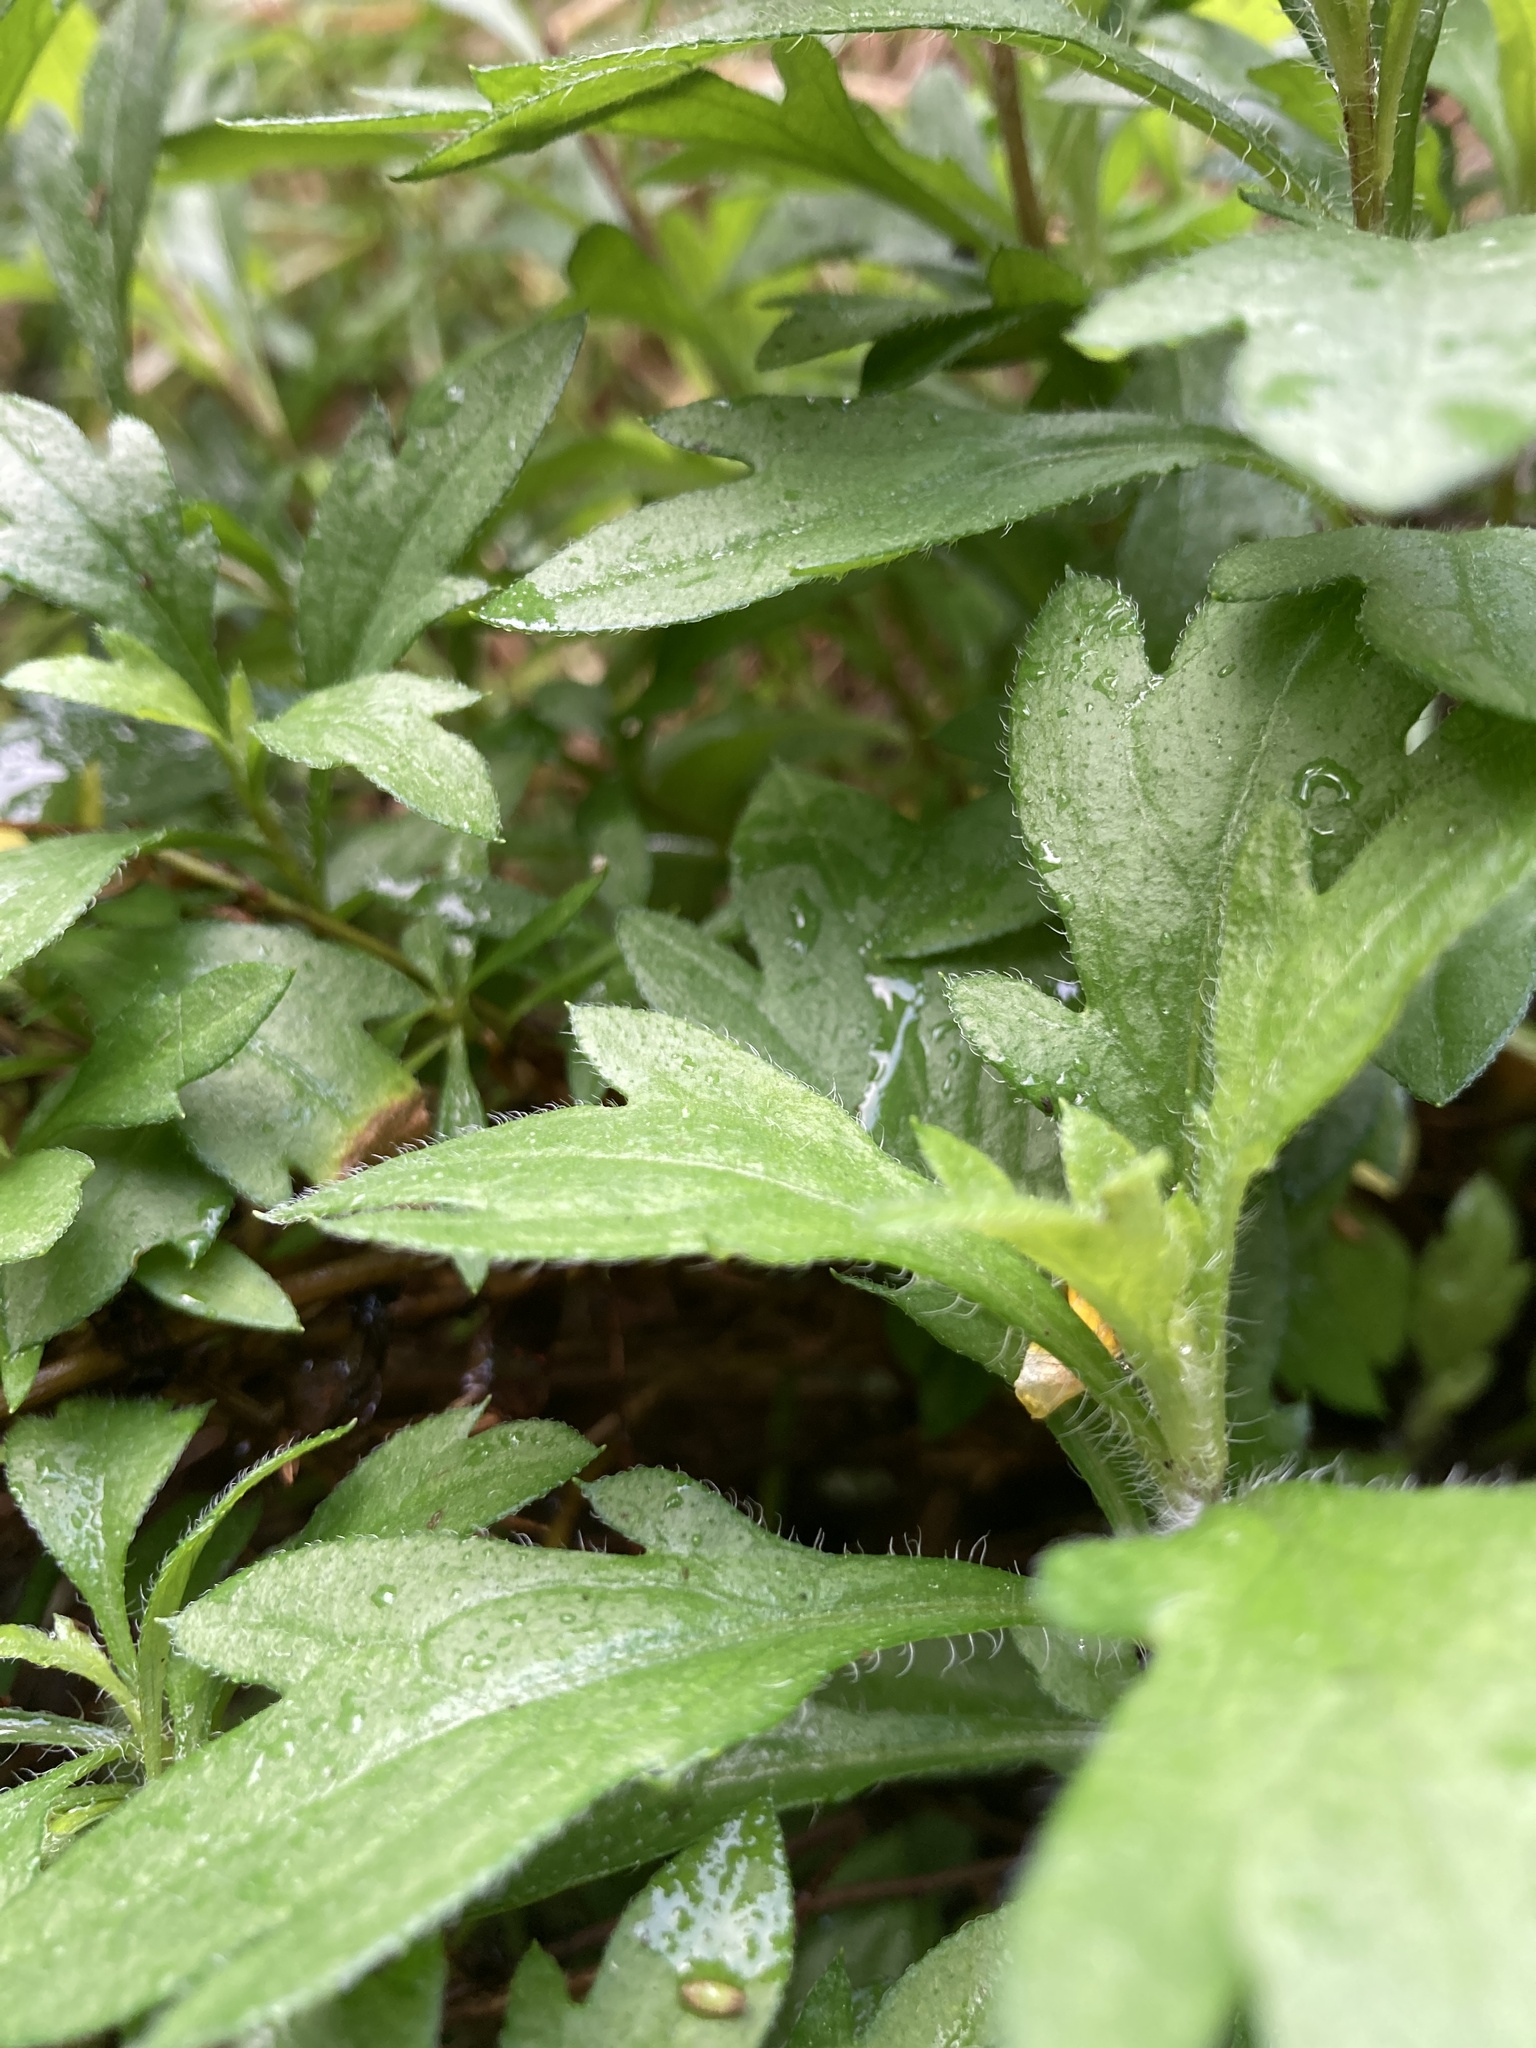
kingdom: Plantae
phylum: Tracheophyta
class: Magnoliopsida
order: Asterales
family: Asteraceae
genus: Erigeron
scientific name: Erigeron karvinskianus
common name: Mexican fleabane
